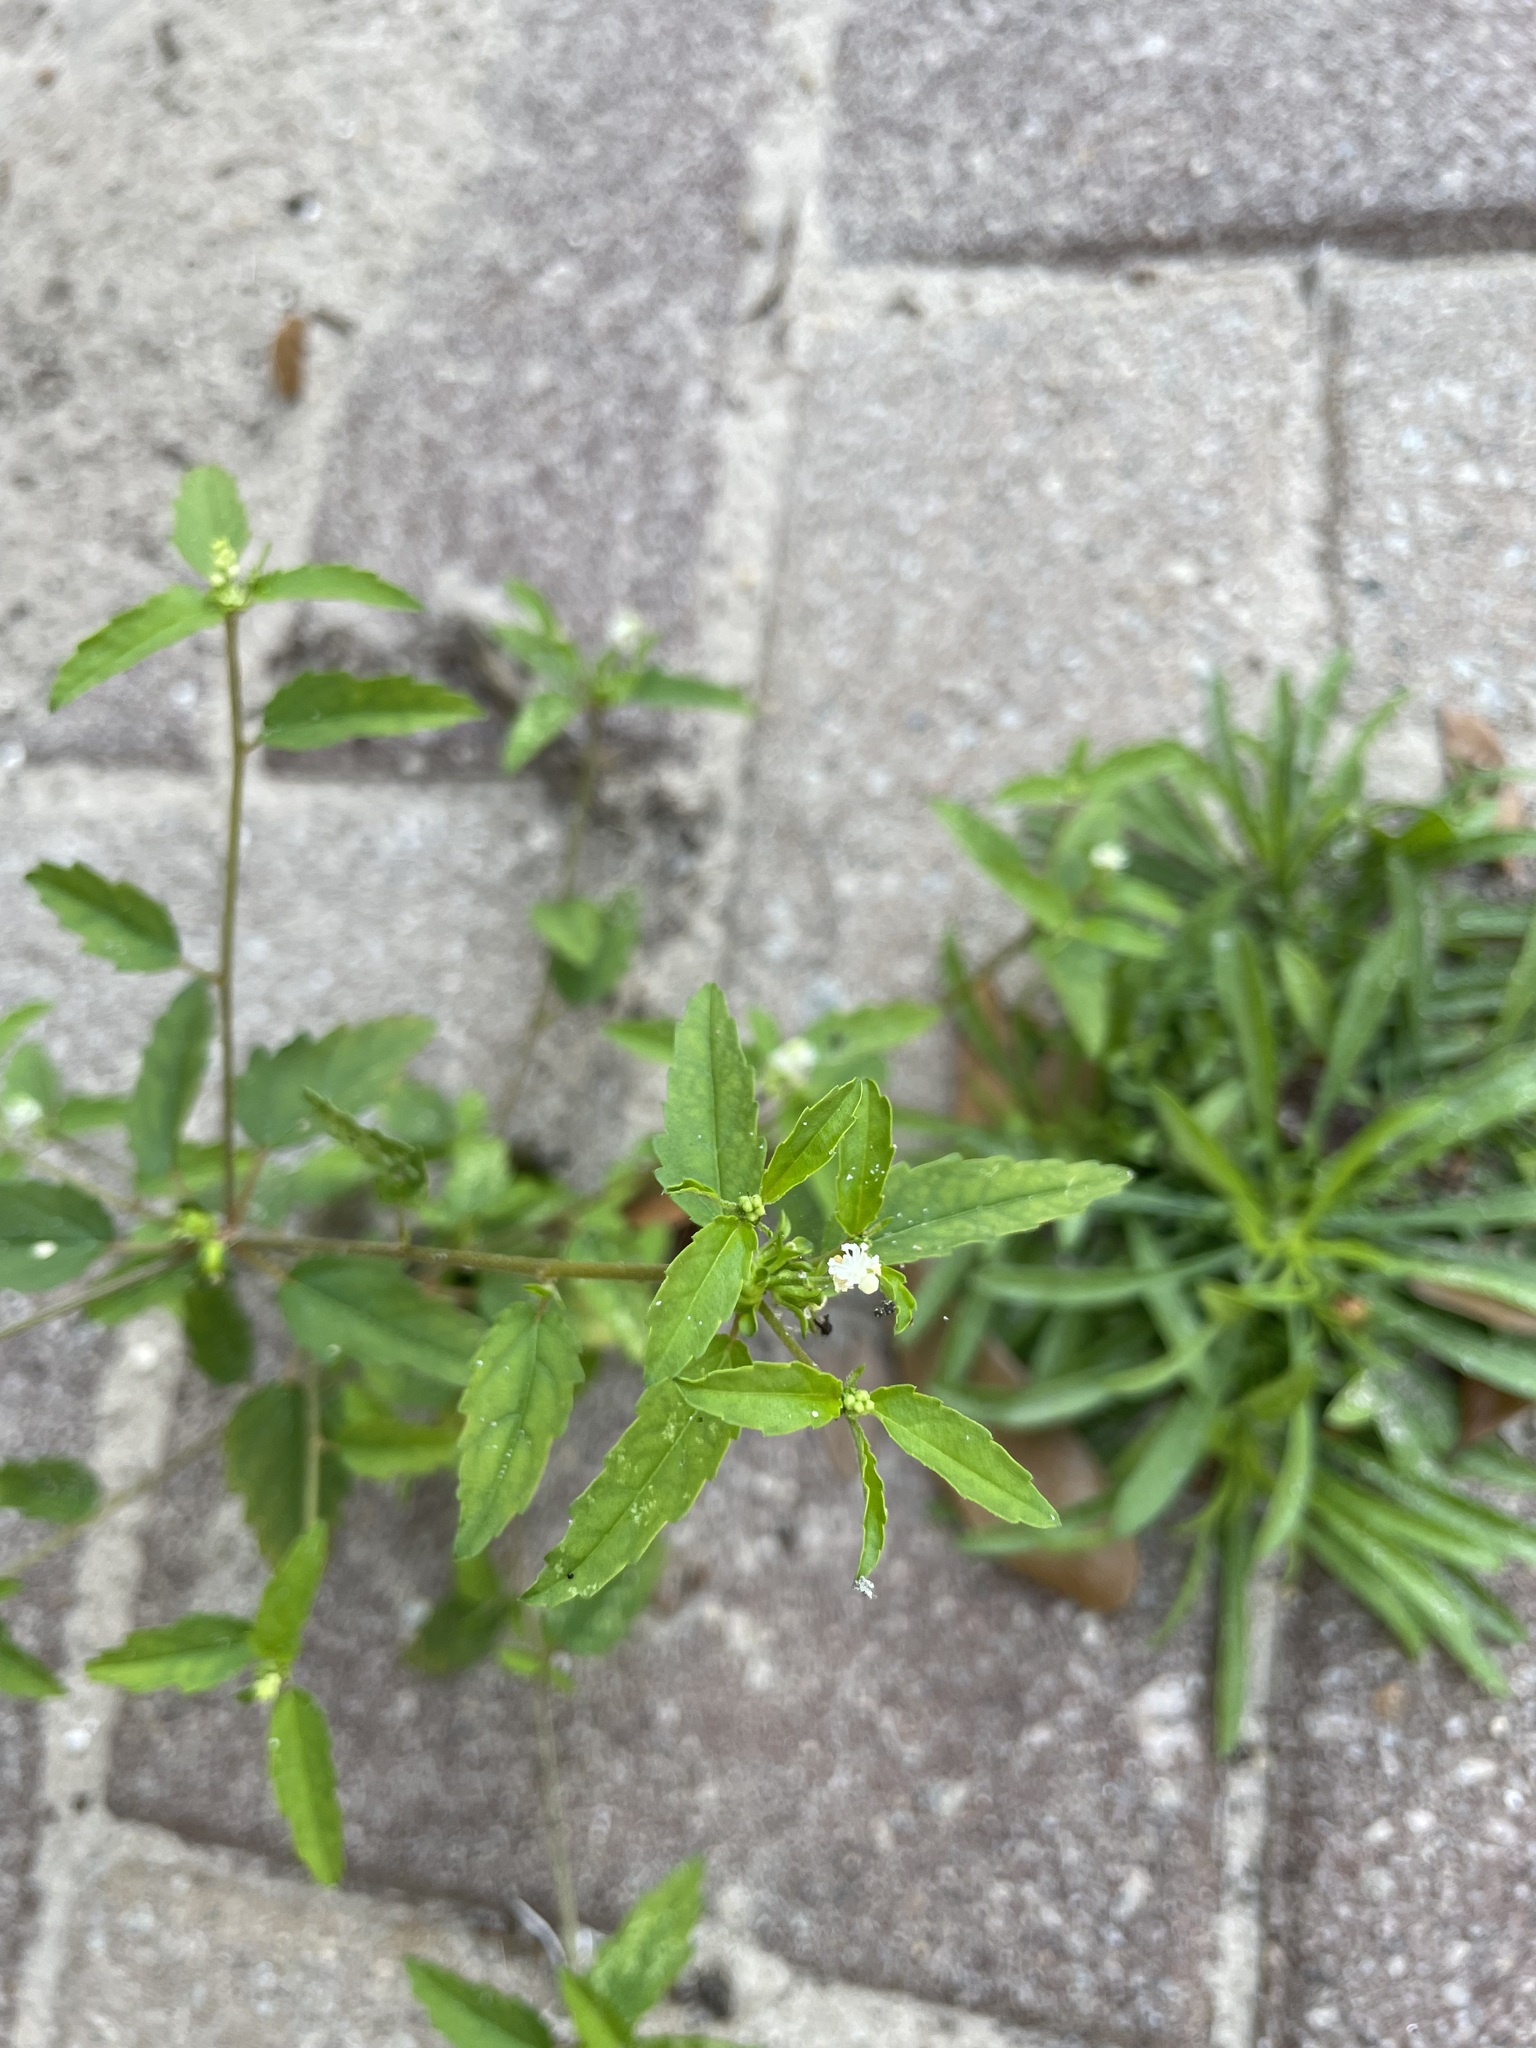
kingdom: Plantae
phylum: Tracheophyta
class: Magnoliopsida
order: Malpighiales
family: Euphorbiaceae
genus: Croton
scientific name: Croton glandulosus
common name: Tropic croton
